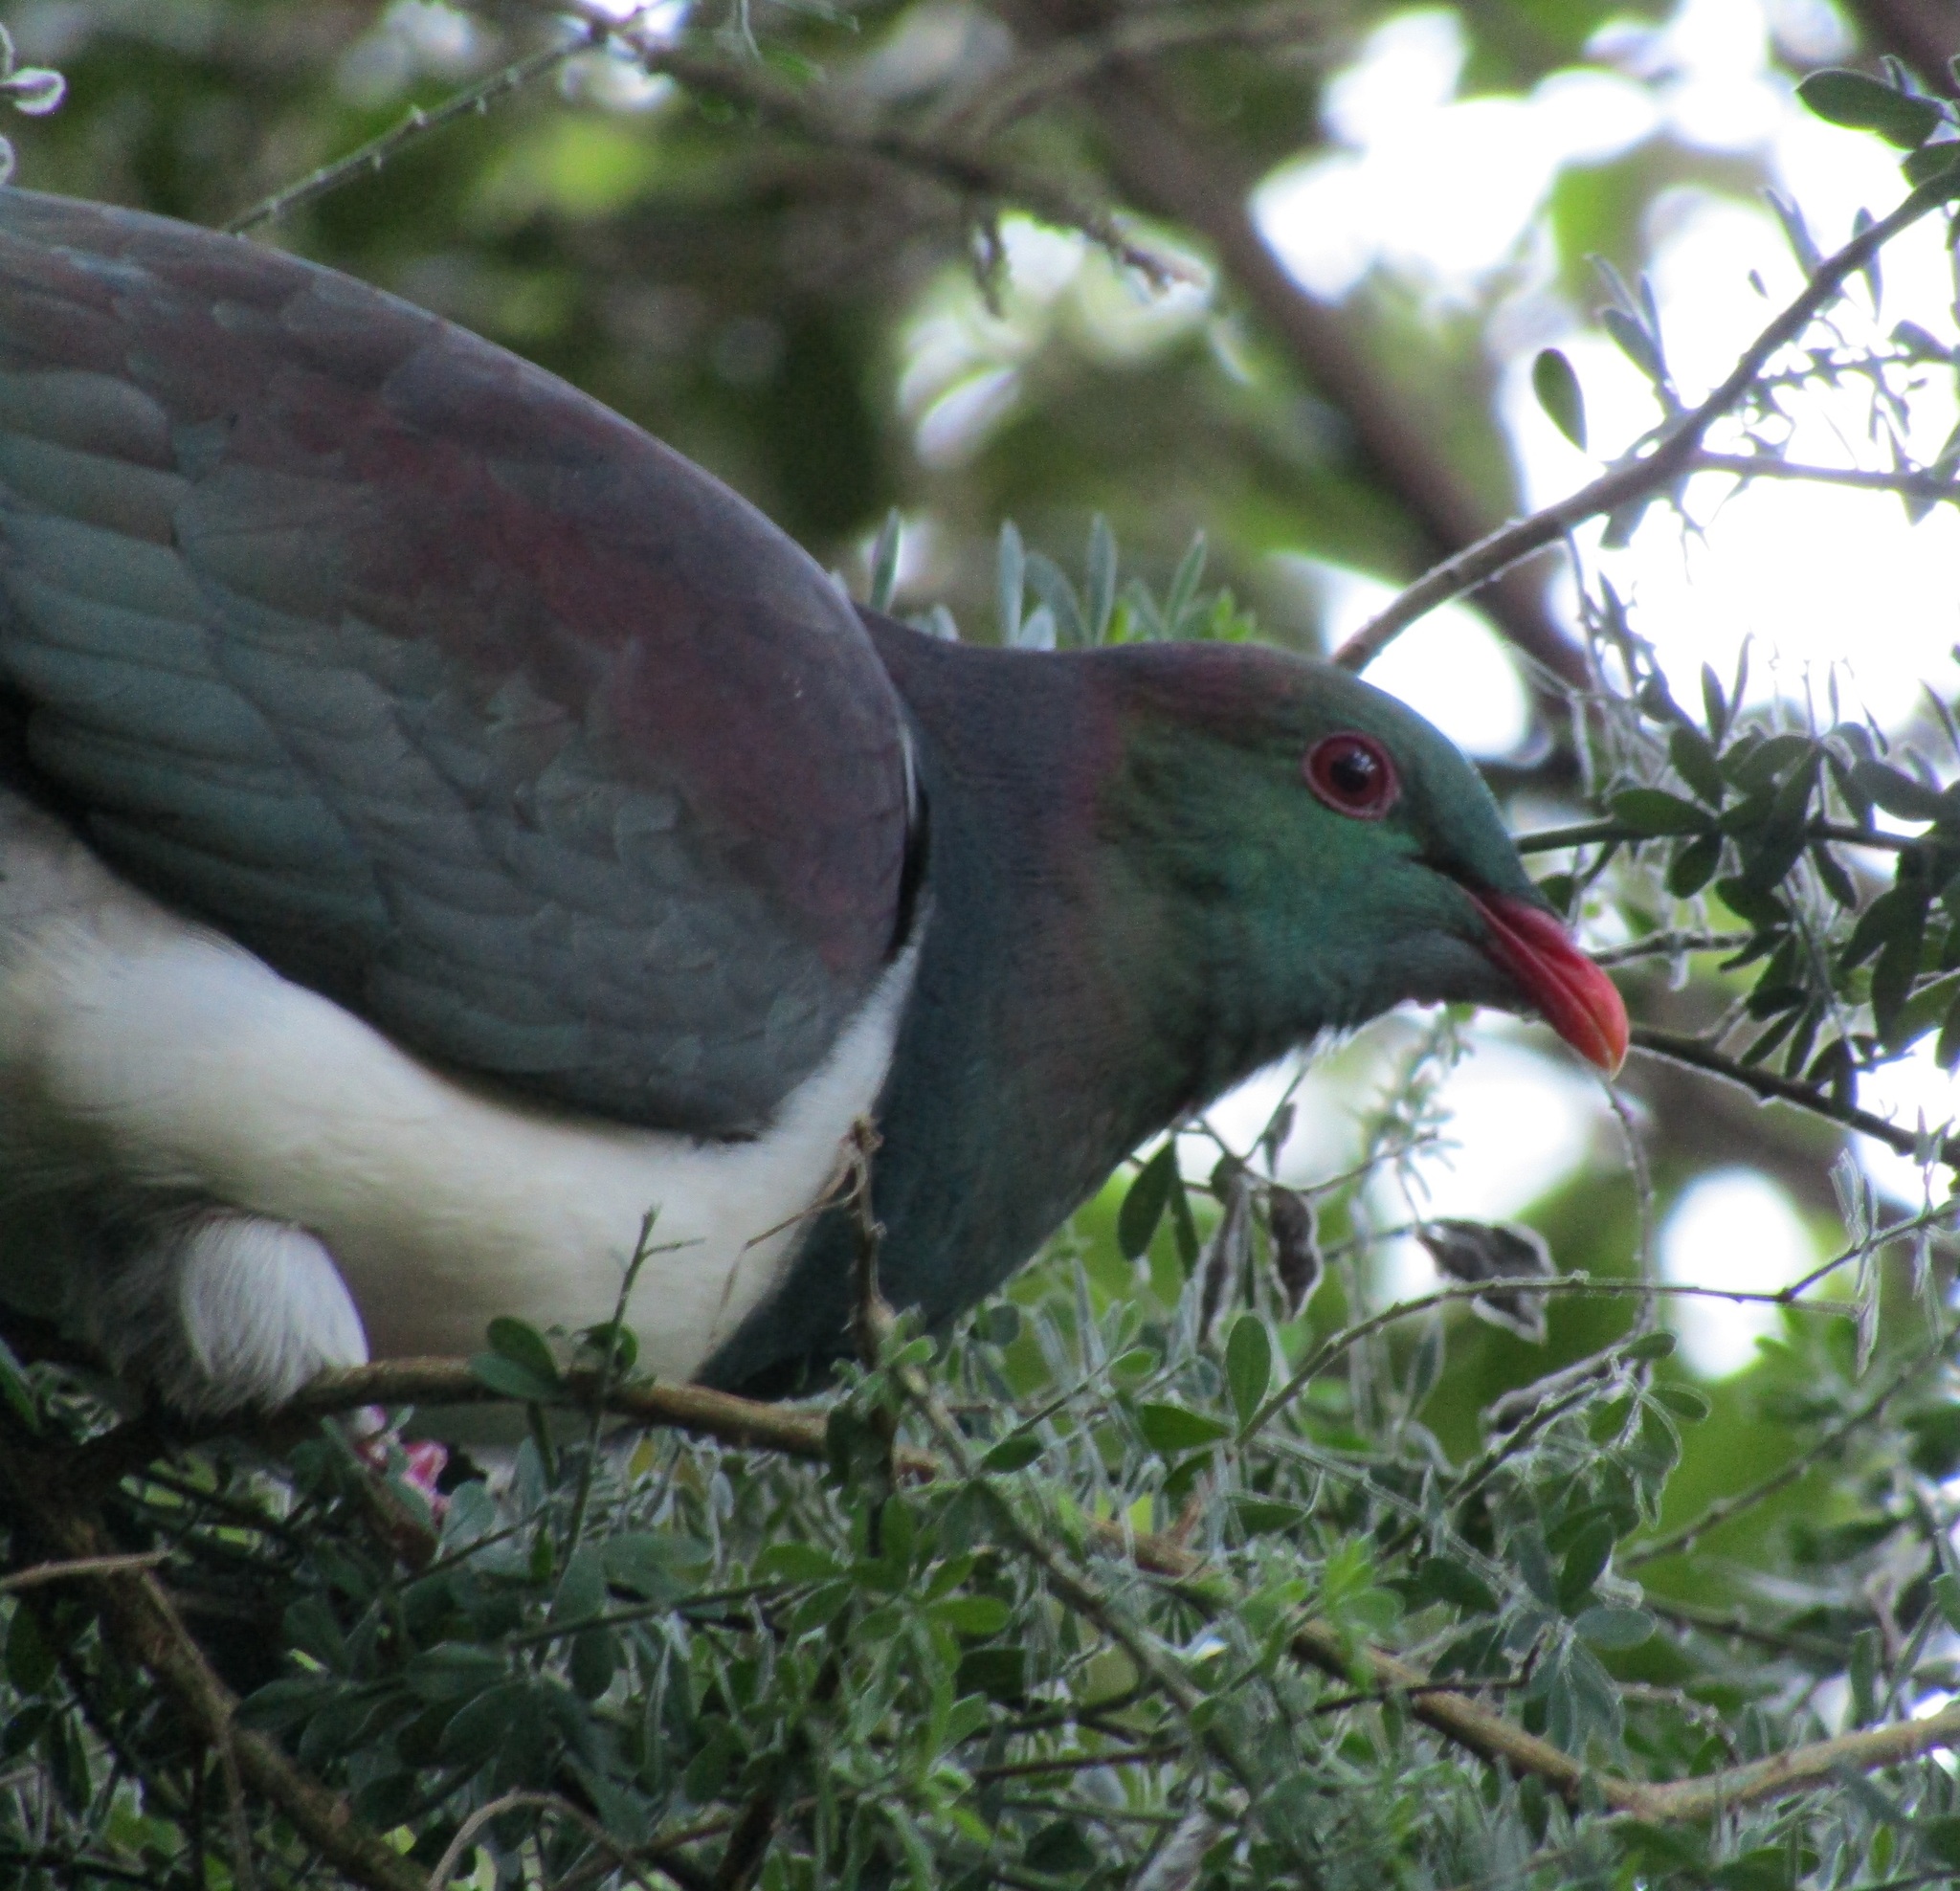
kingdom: Animalia
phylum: Chordata
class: Aves
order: Columbiformes
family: Columbidae
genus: Hemiphaga
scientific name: Hemiphaga novaeseelandiae
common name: New zealand pigeon
